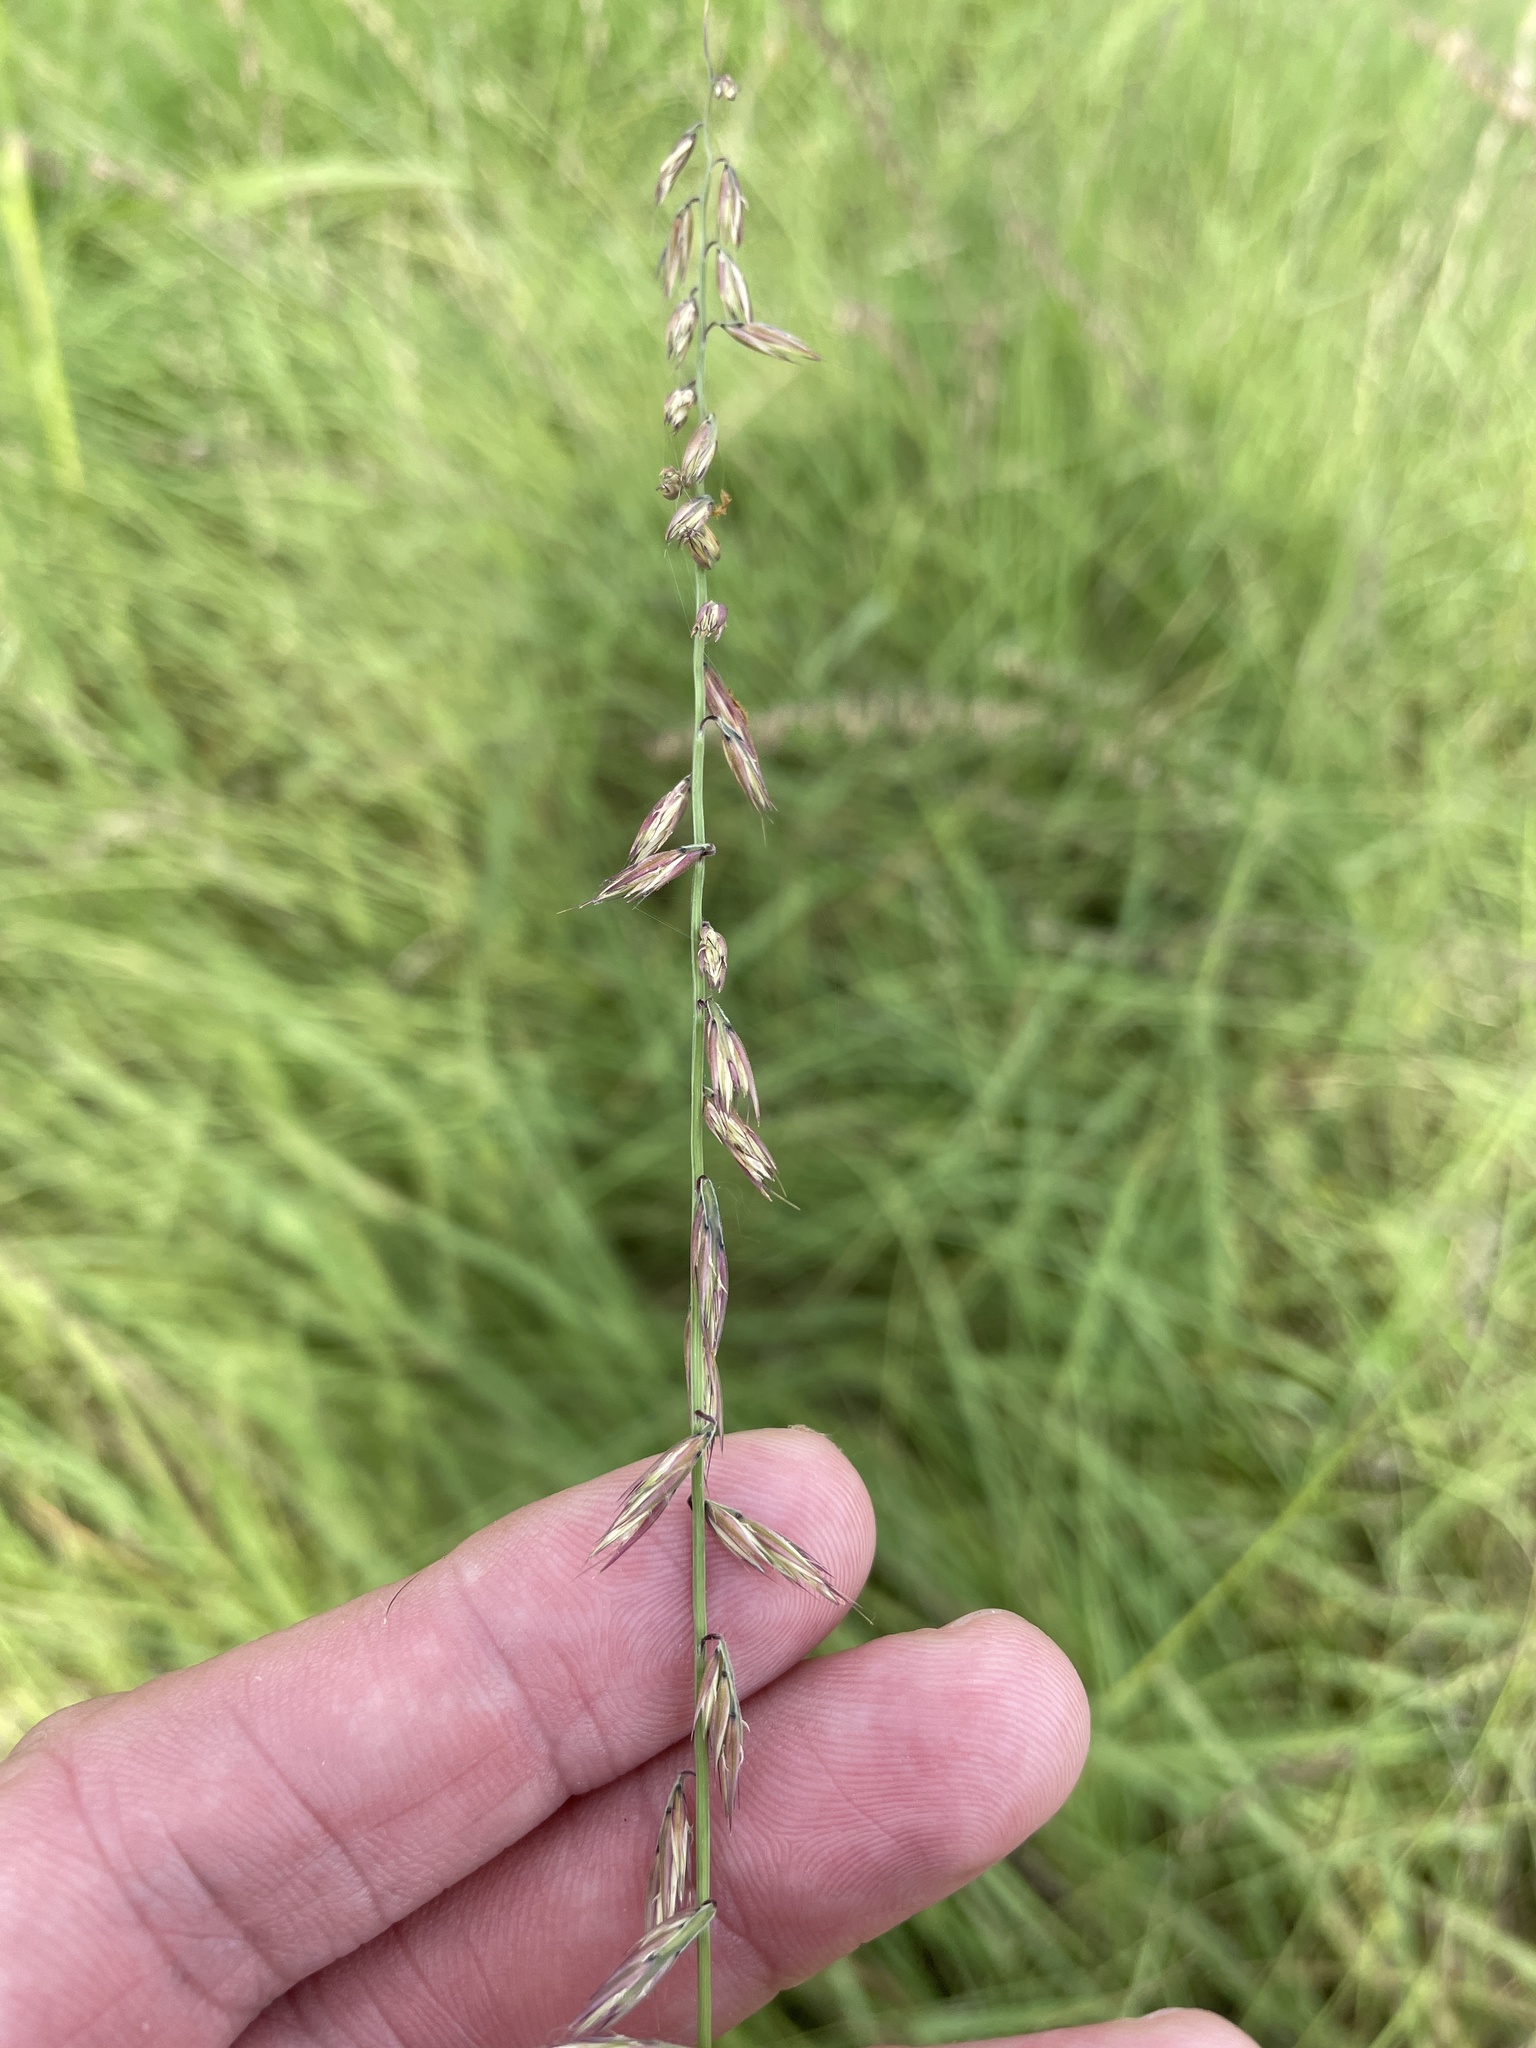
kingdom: Plantae
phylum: Tracheophyta
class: Liliopsida
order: Poales
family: Poaceae
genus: Bouteloua
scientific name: Bouteloua curtipendula
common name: Side-oats grama
